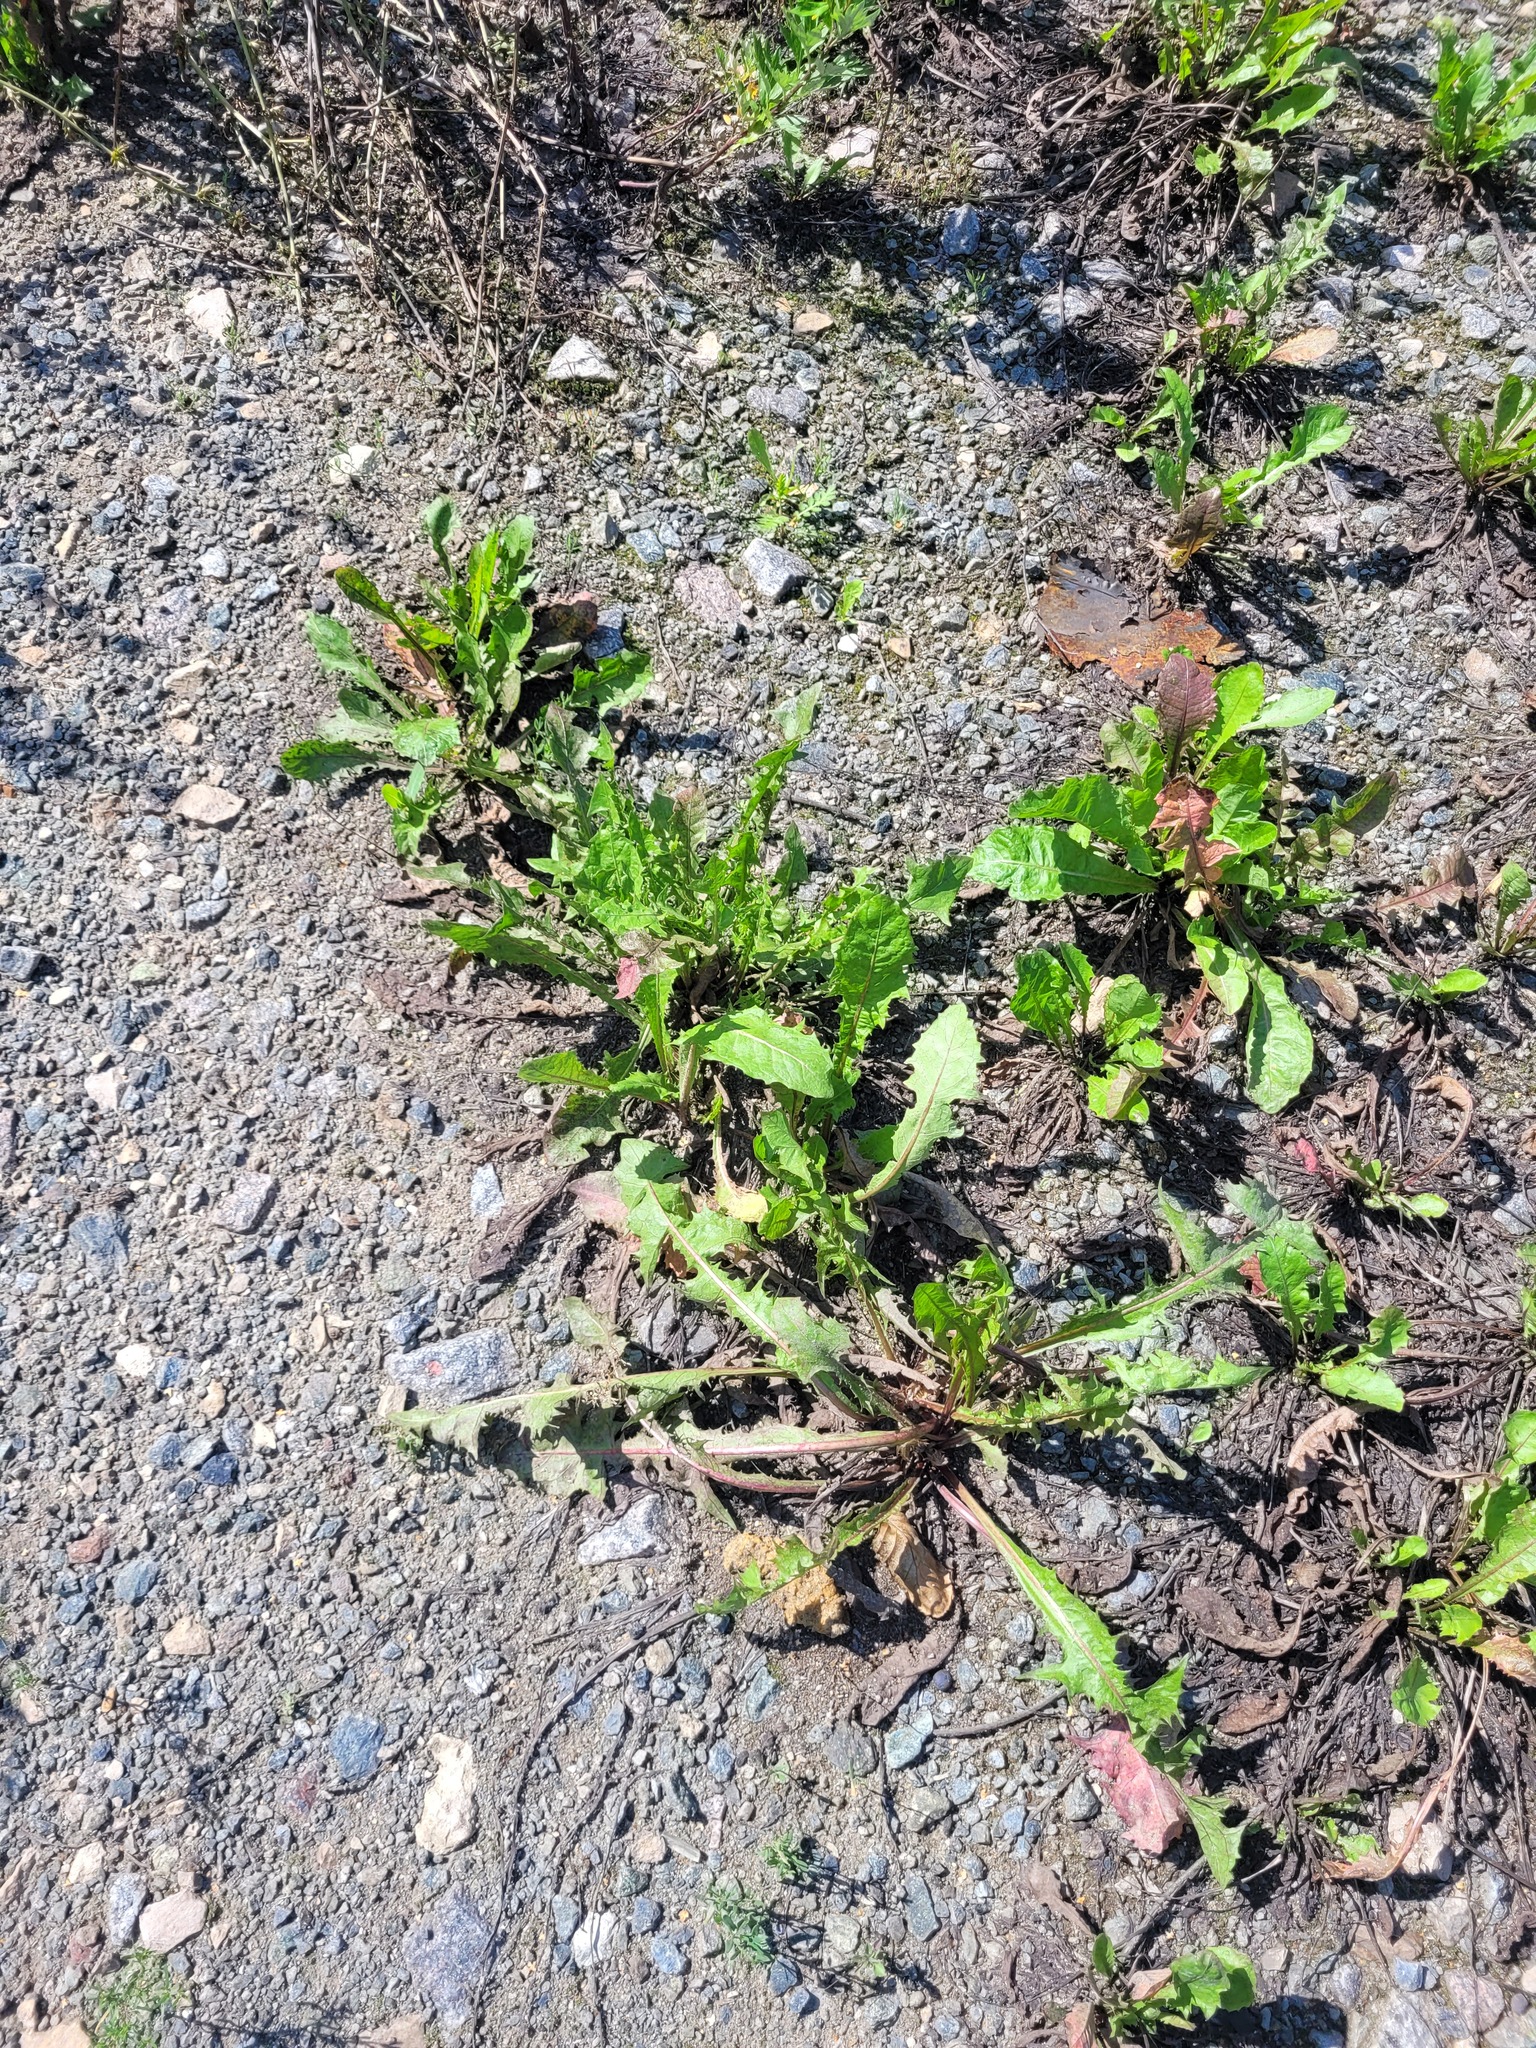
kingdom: Plantae
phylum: Tracheophyta
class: Magnoliopsida
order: Asterales
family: Asteraceae
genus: Taraxacum
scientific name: Taraxacum officinale
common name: Common dandelion
